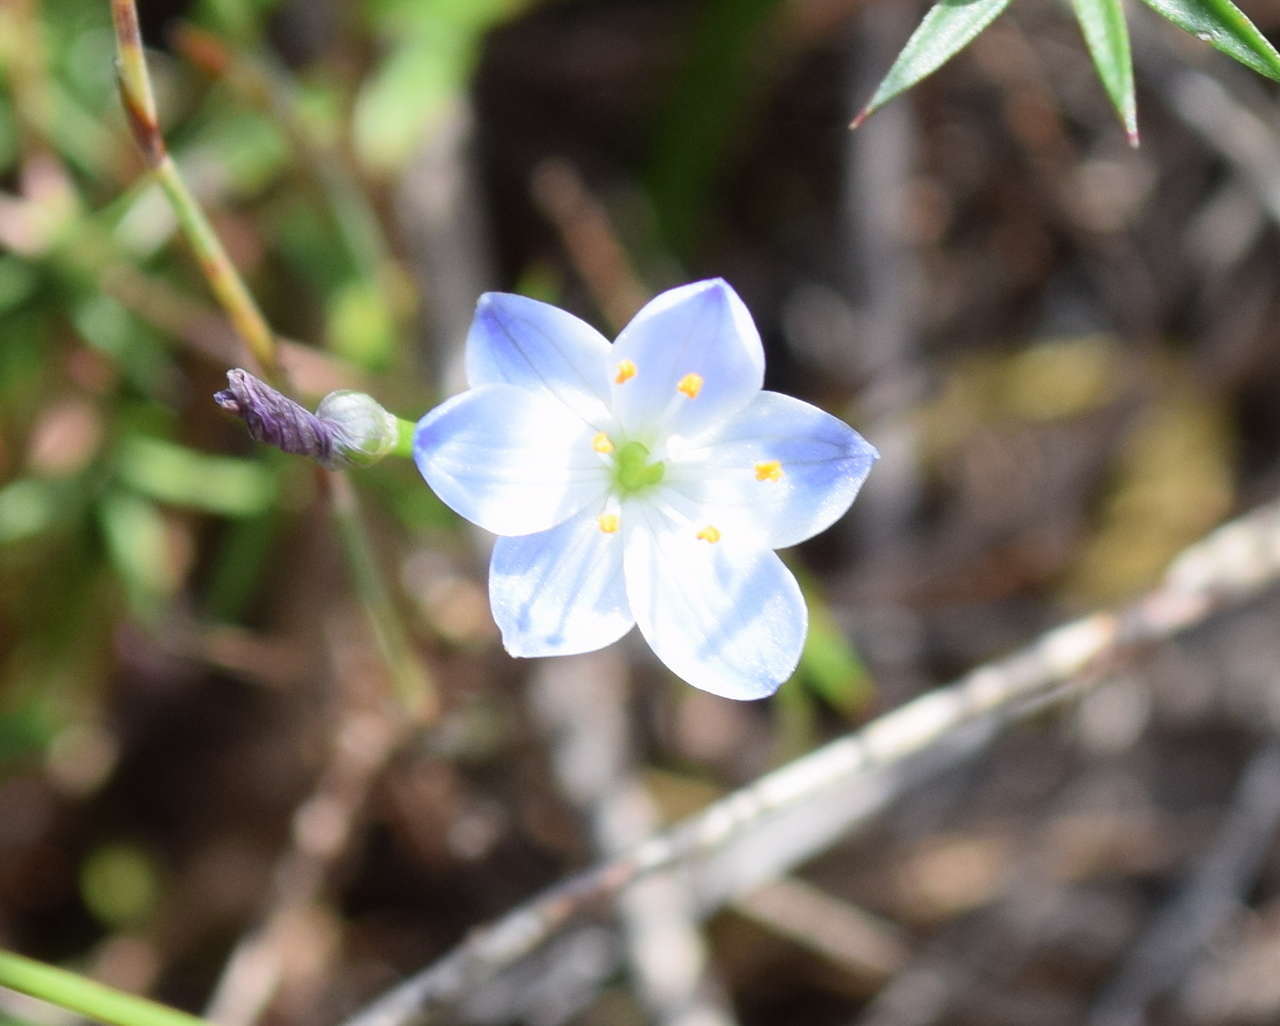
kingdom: Plantae
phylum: Tracheophyta
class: Liliopsida
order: Asparagales
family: Asphodelaceae
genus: Chamaescilla
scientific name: Chamaescilla corymbosa
